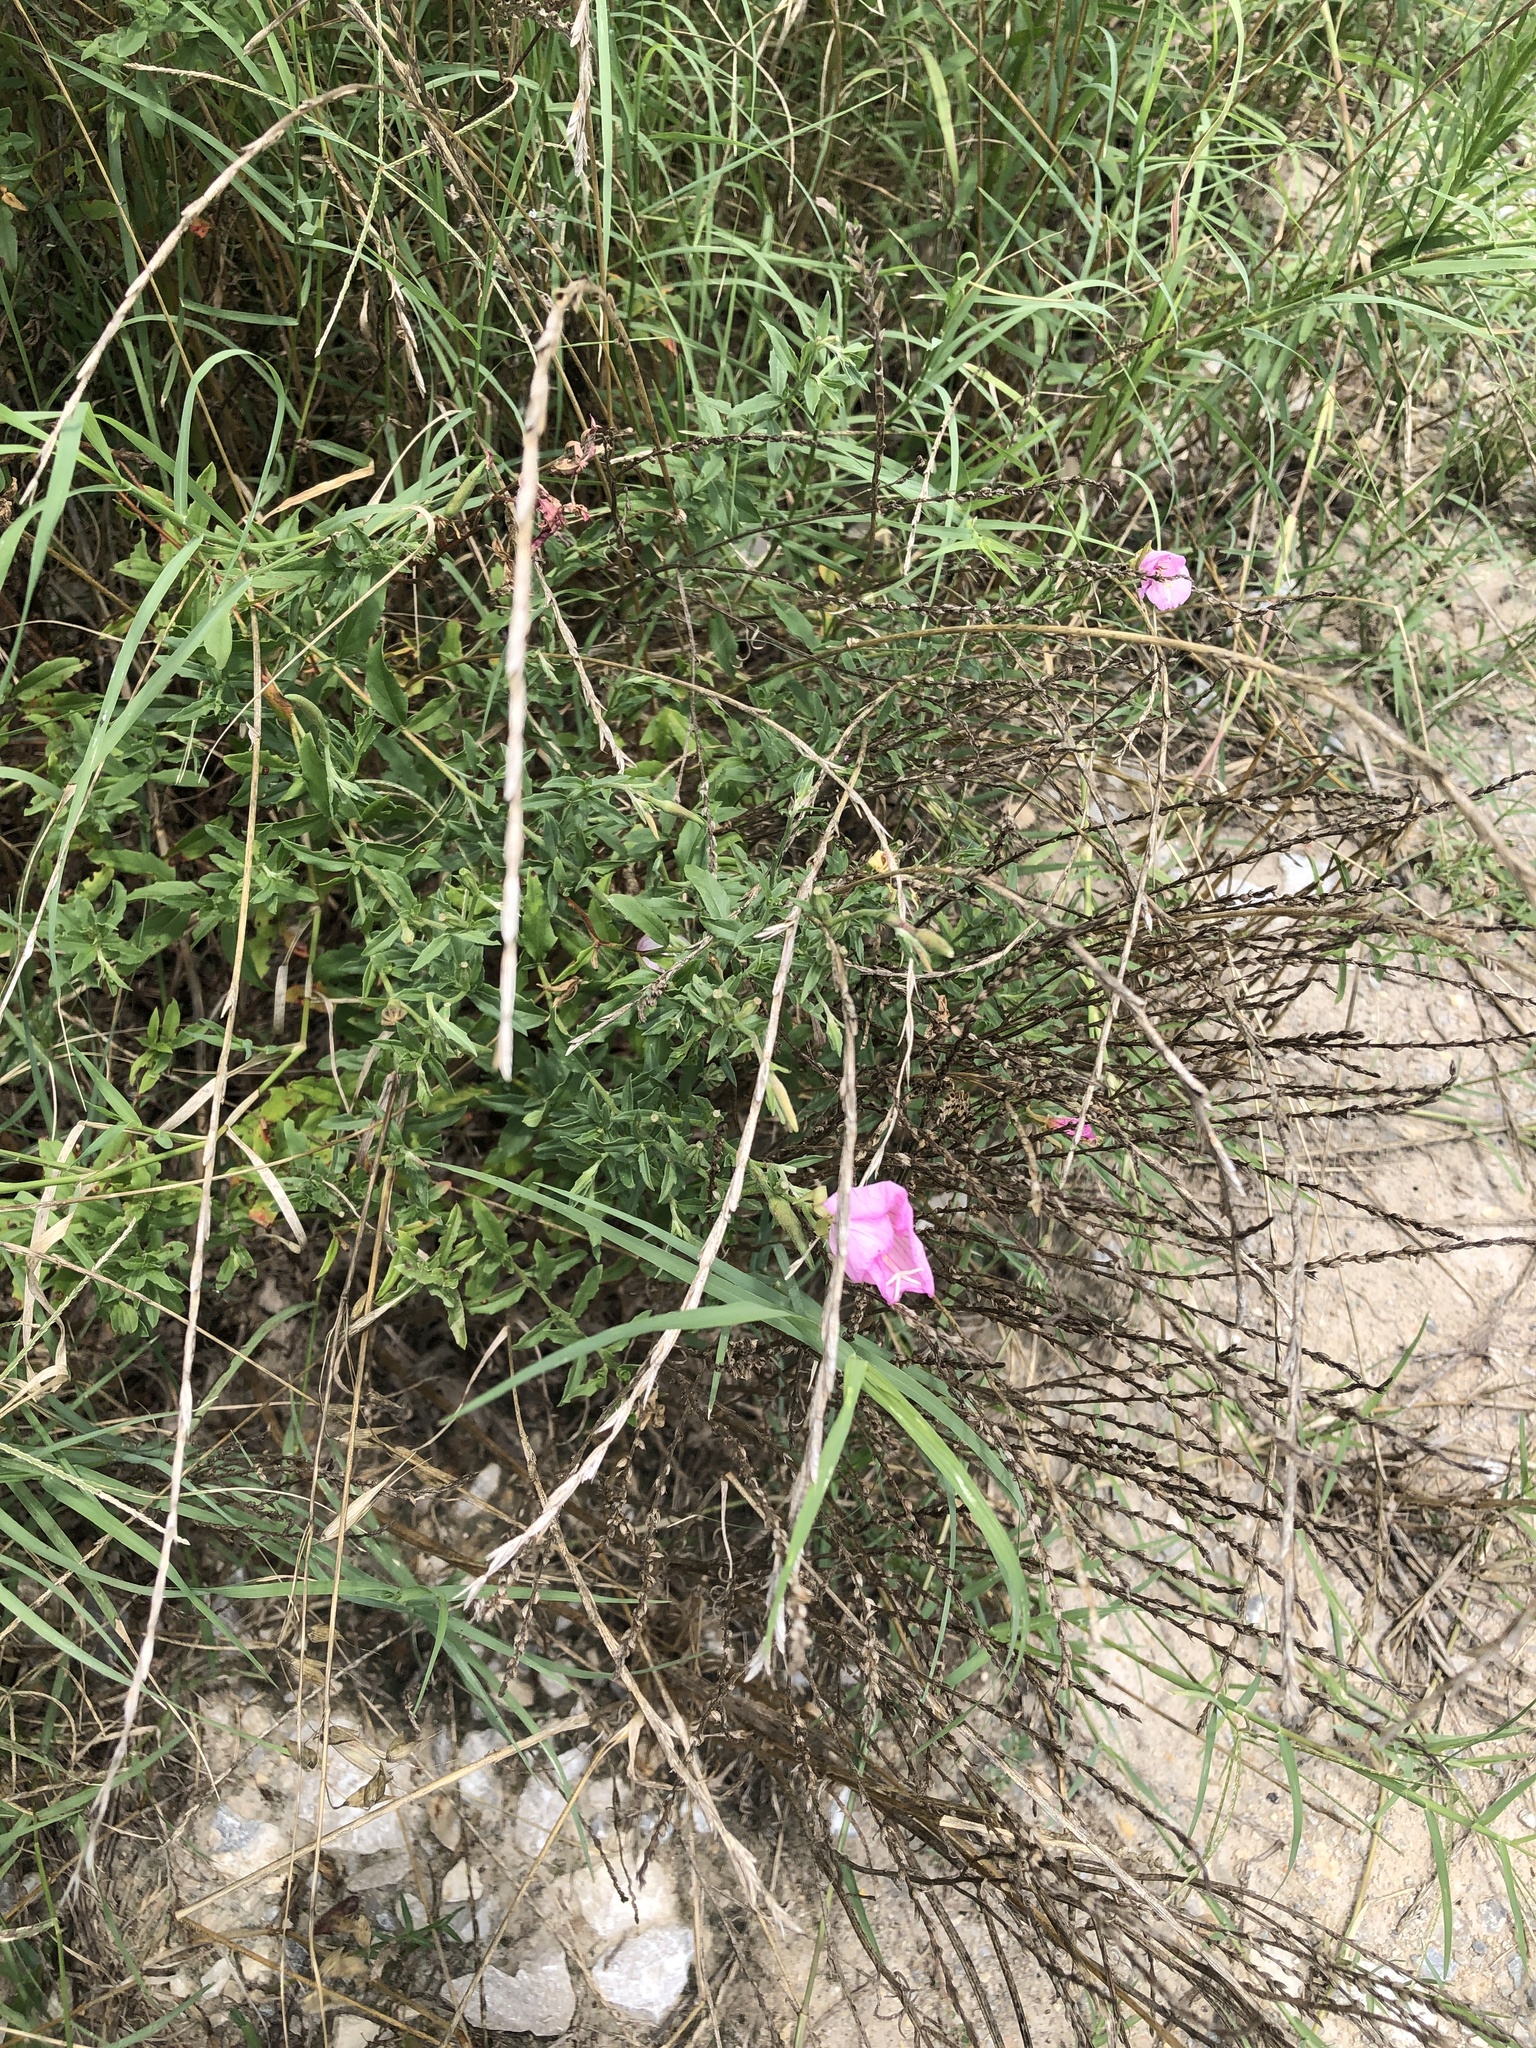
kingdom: Plantae
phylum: Tracheophyta
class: Magnoliopsida
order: Myrtales
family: Onagraceae
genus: Oenothera
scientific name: Oenothera speciosa
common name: White evening-primrose
